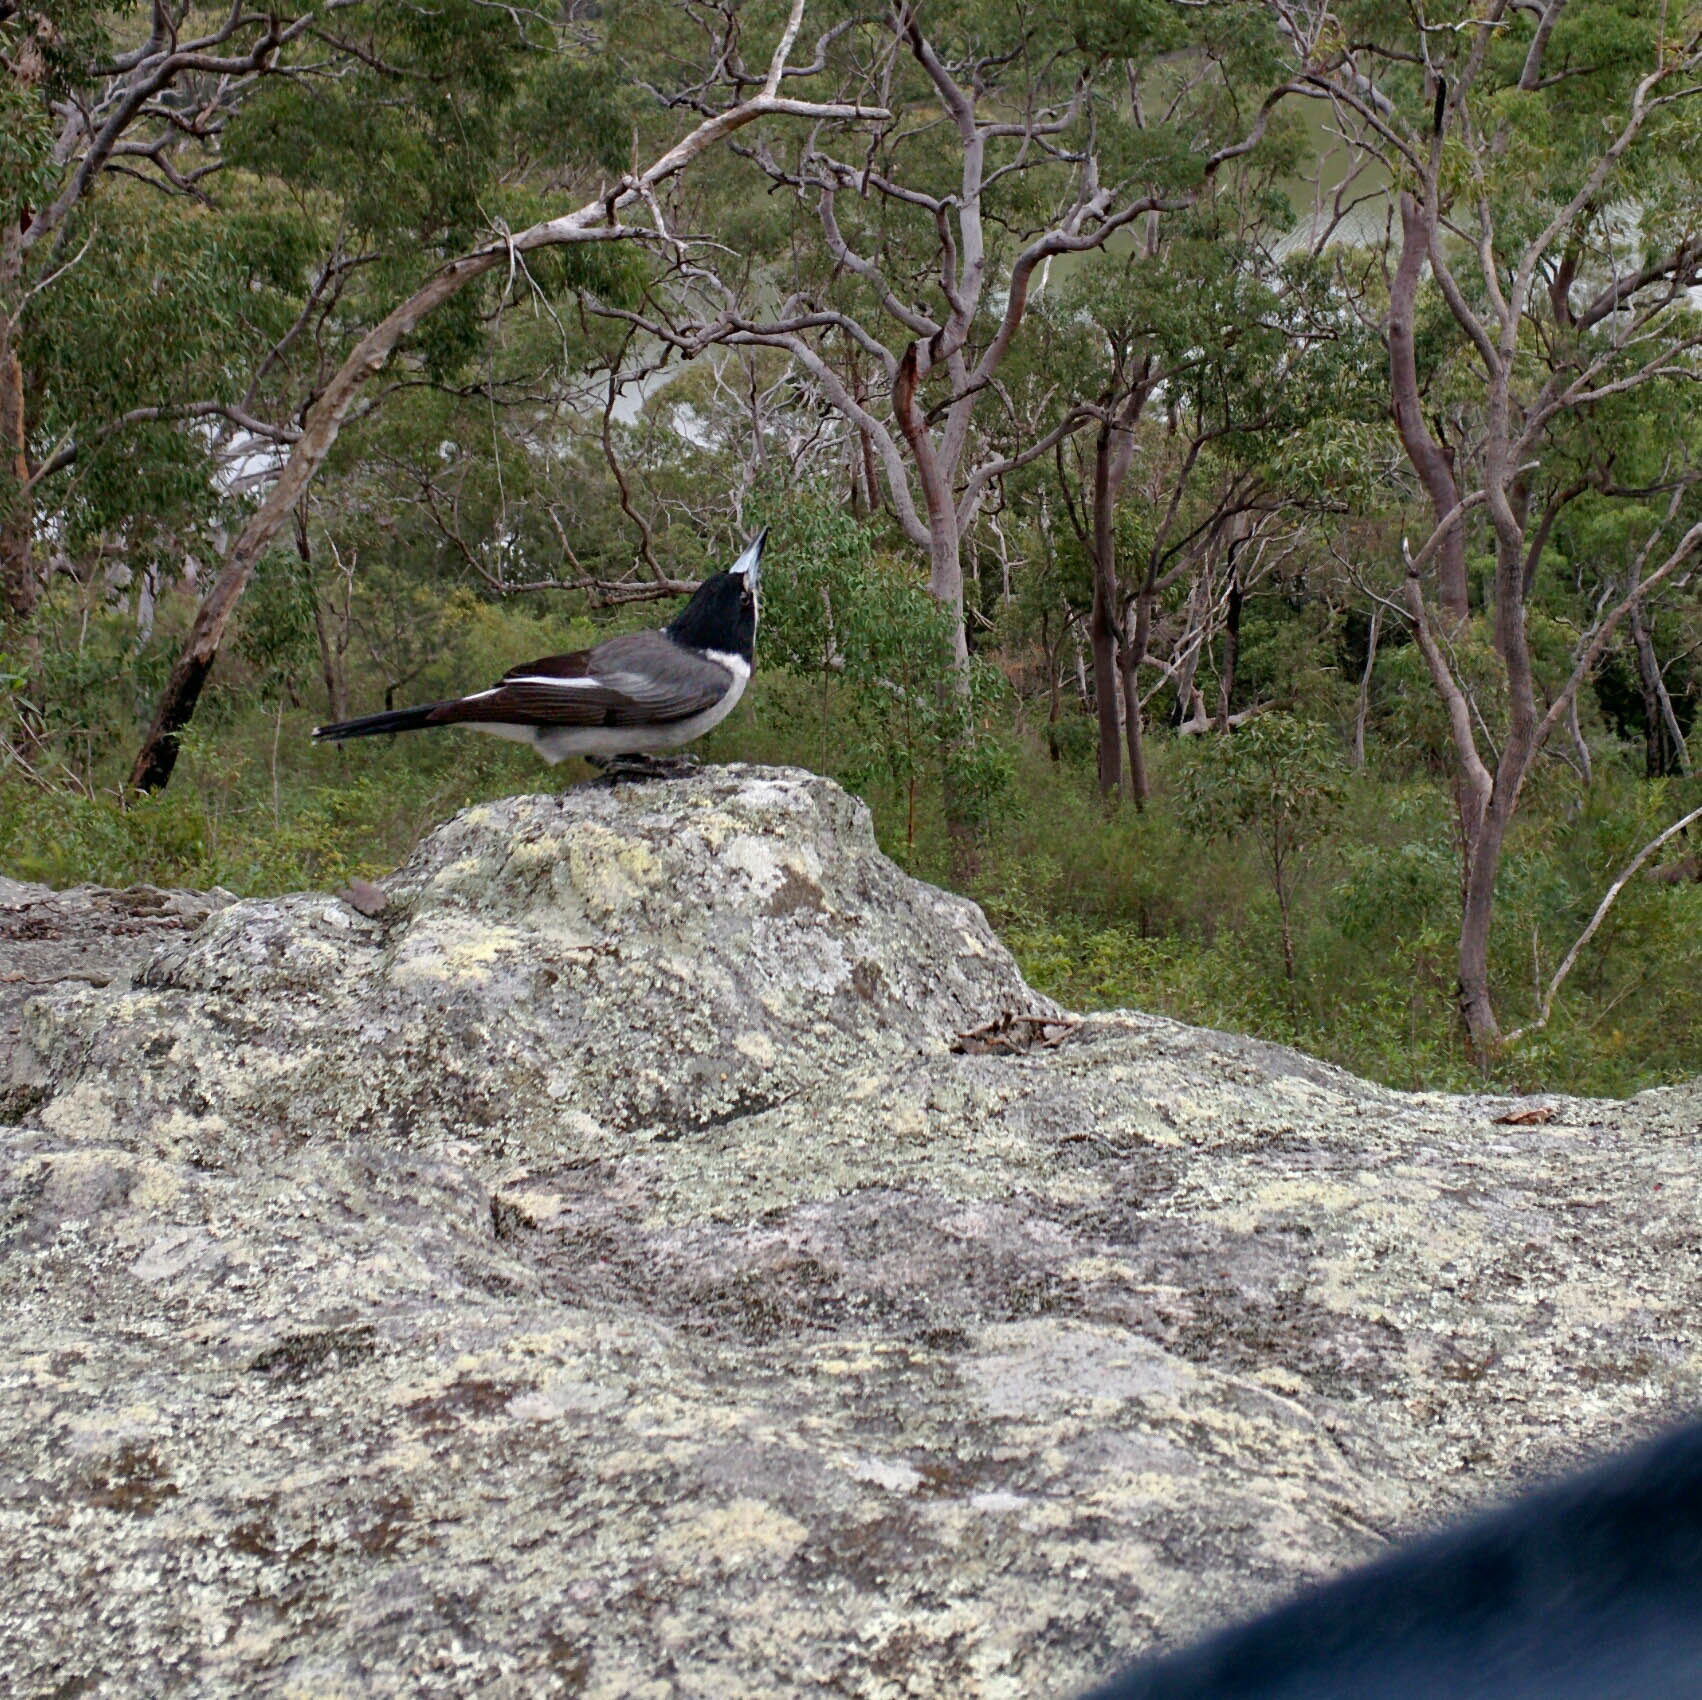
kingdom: Animalia
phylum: Chordata
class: Aves
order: Passeriformes
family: Cracticidae
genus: Cracticus
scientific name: Cracticus torquatus
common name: Grey butcherbird
